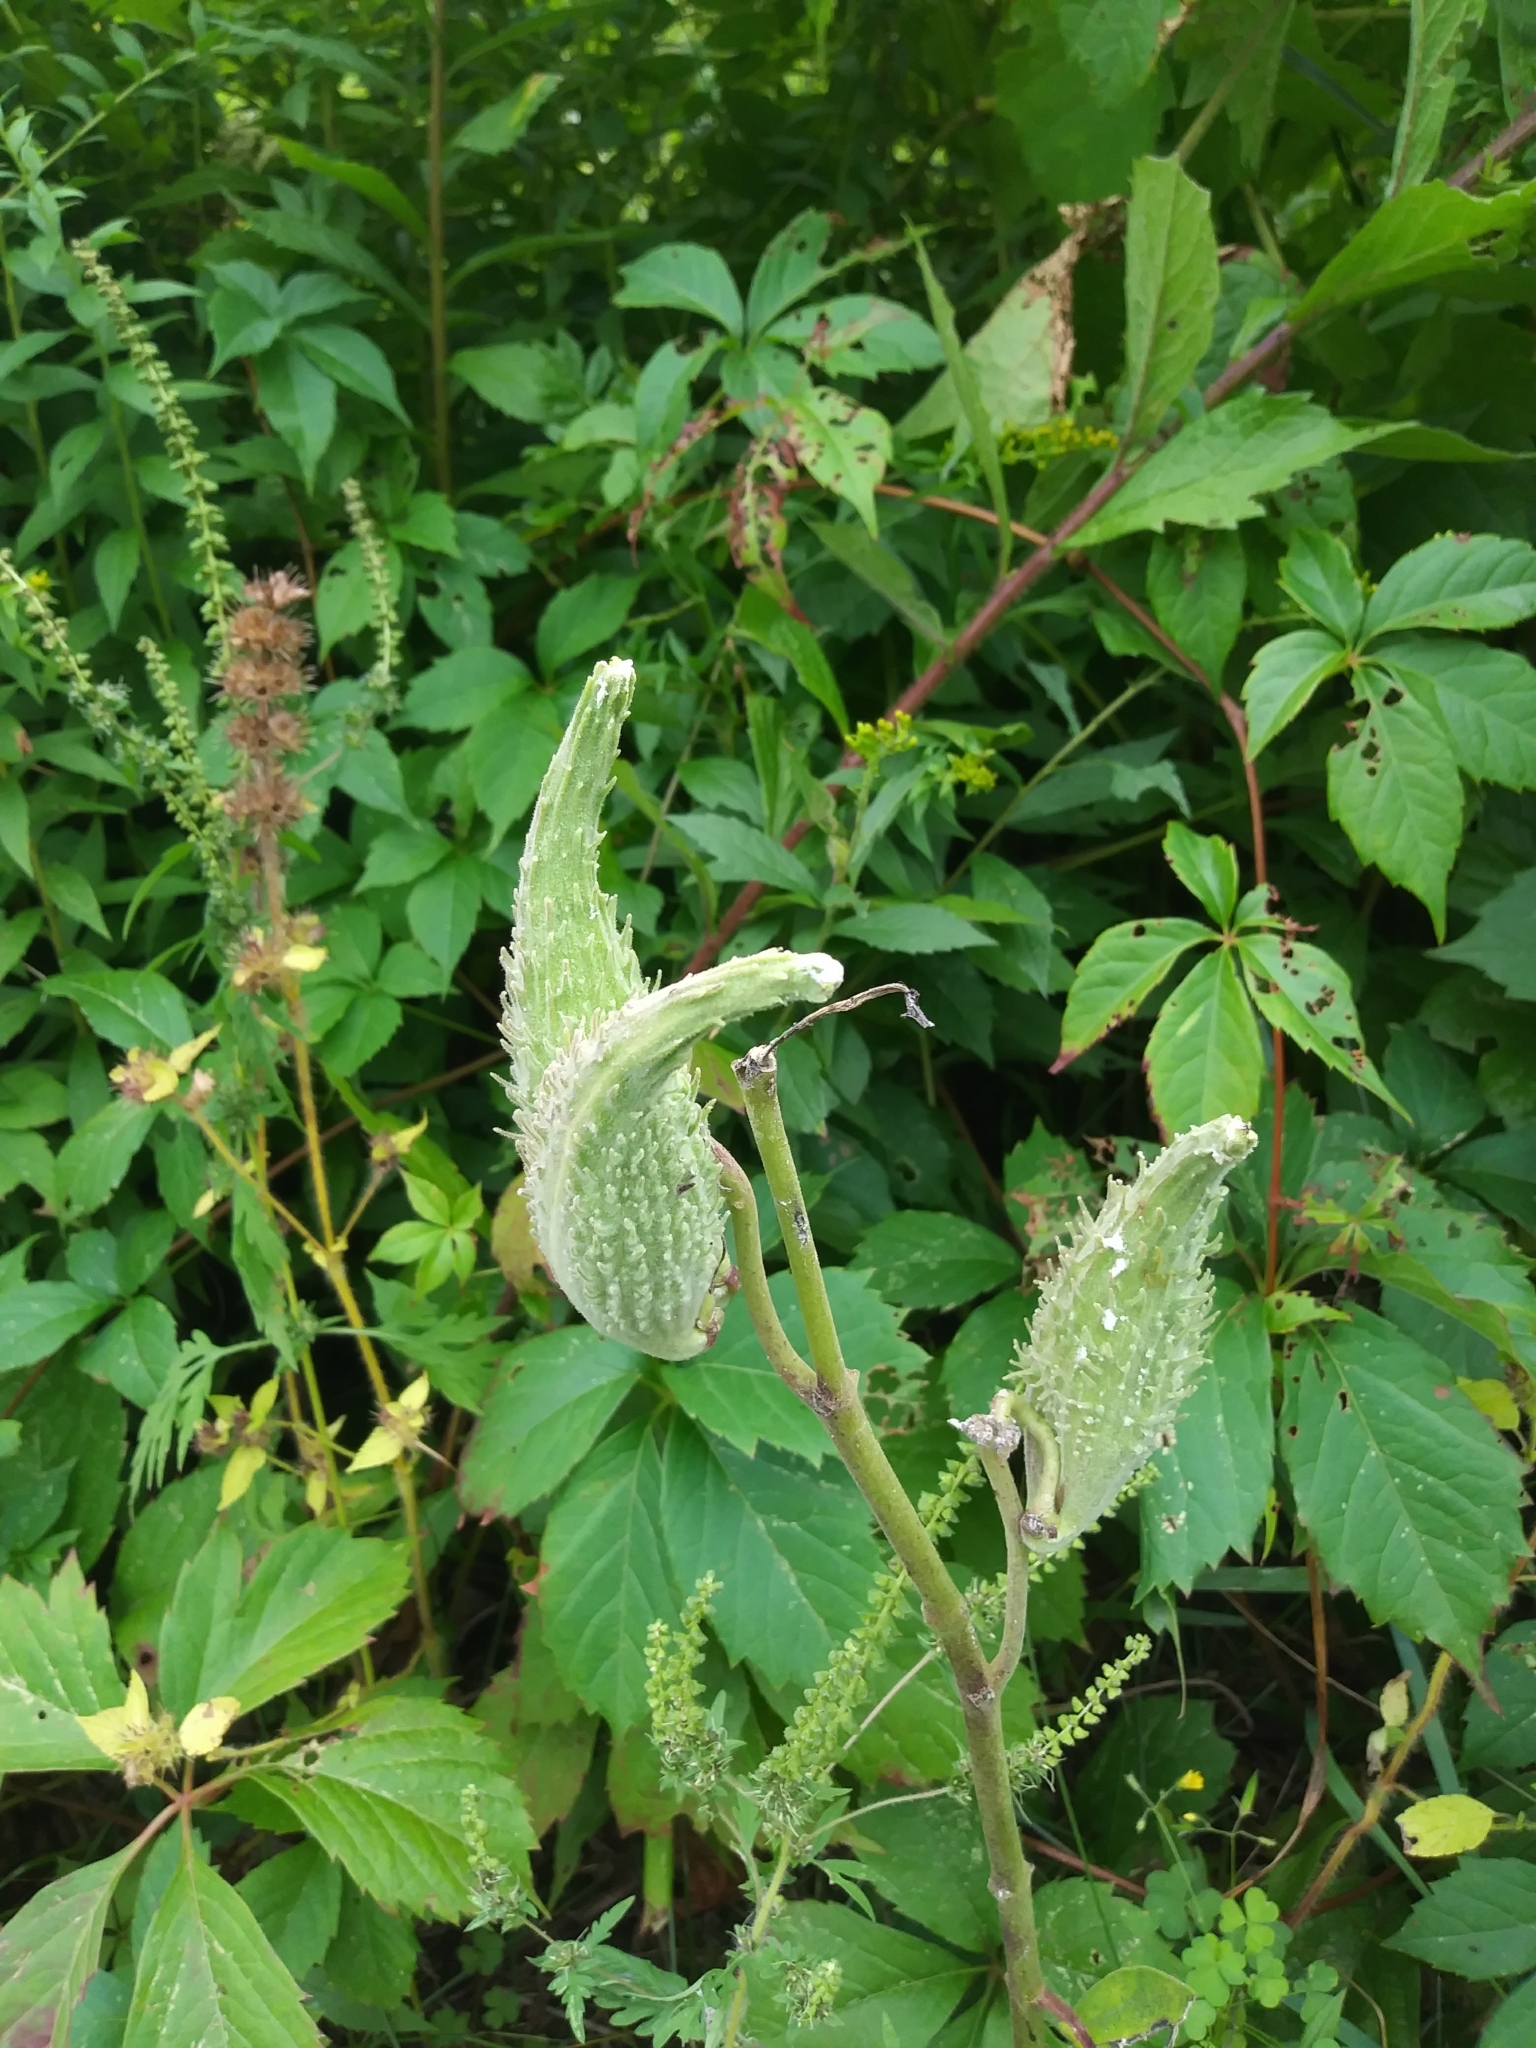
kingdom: Plantae
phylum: Tracheophyta
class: Magnoliopsida
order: Gentianales
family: Apocynaceae
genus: Asclepias
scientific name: Asclepias syriaca
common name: Common milkweed
